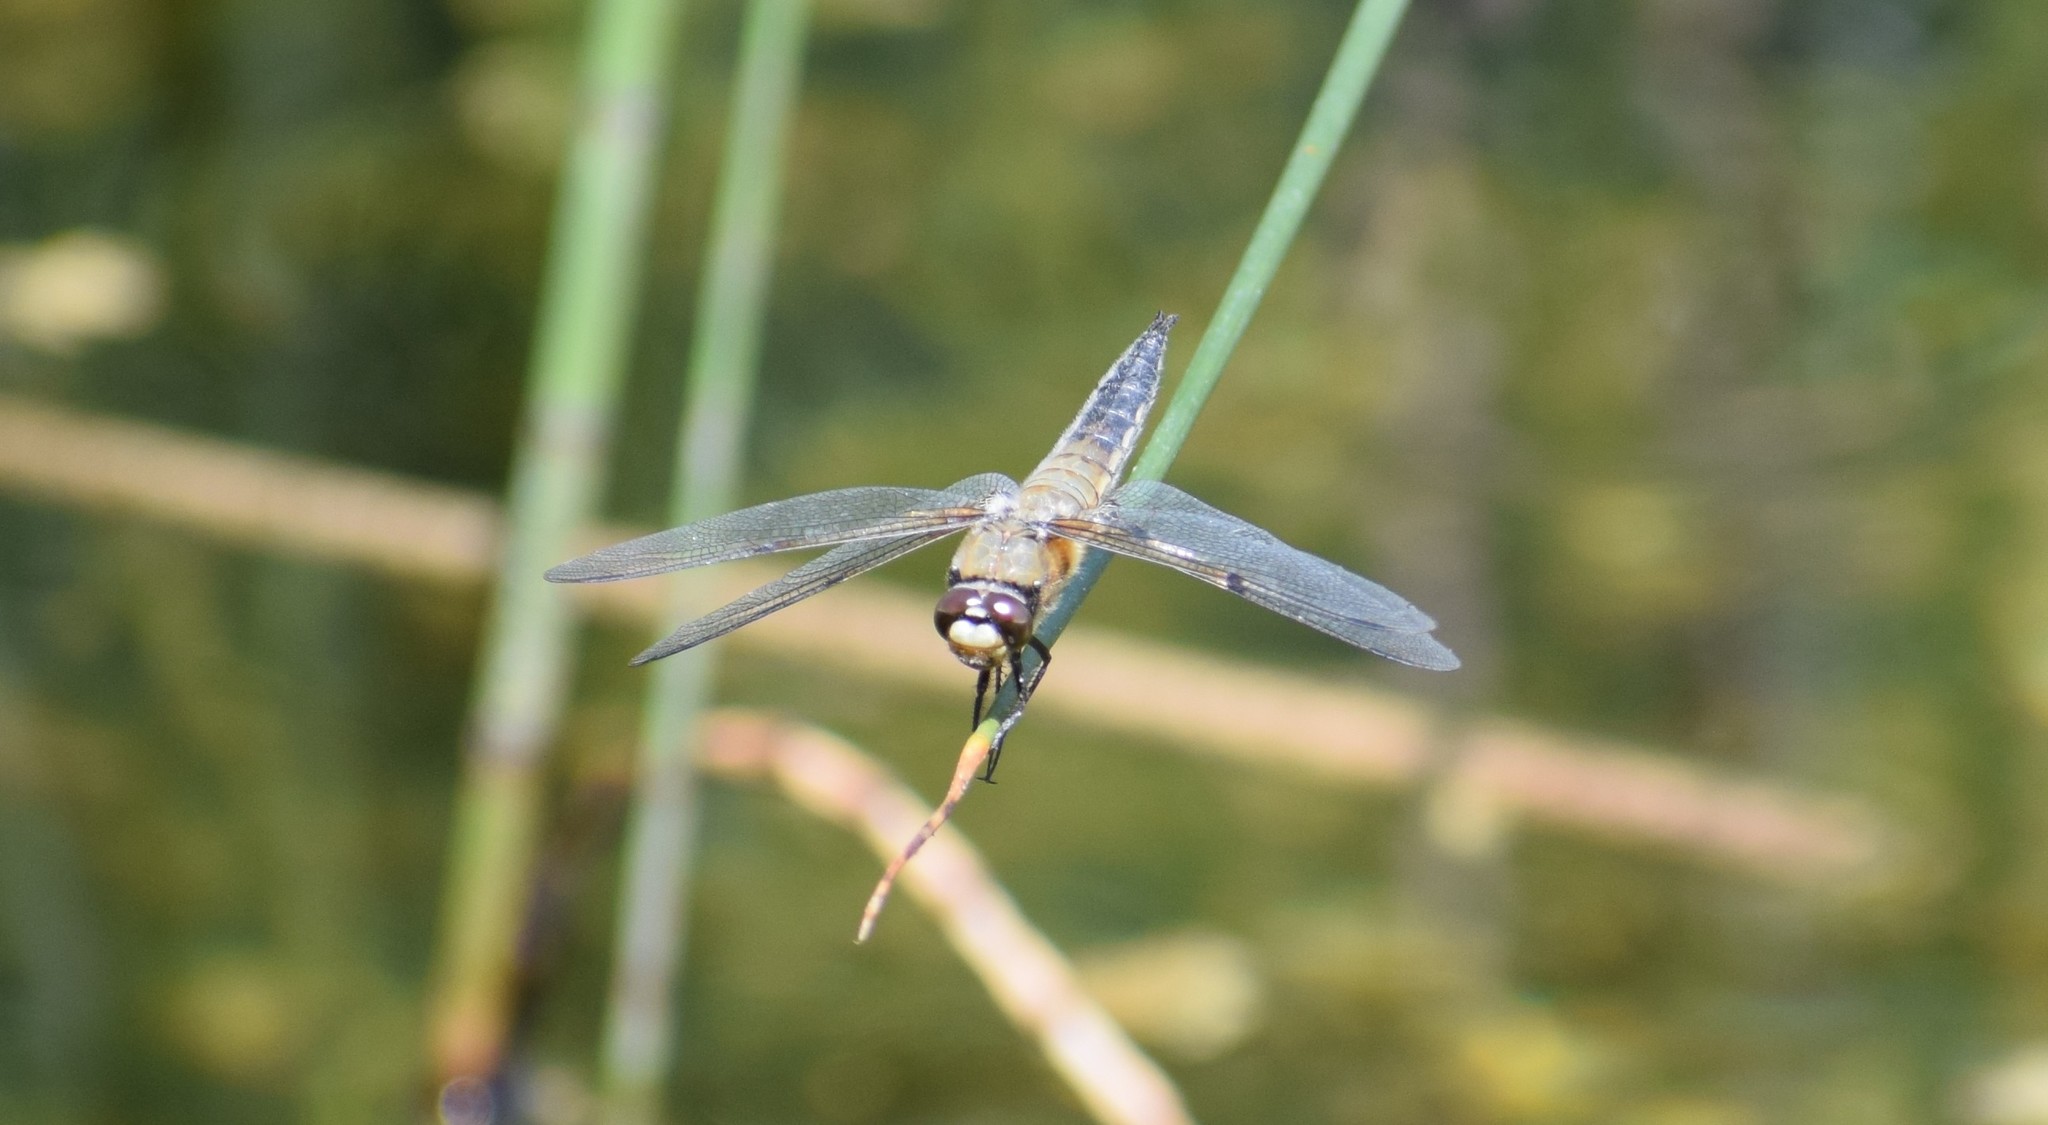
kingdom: Animalia
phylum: Arthropoda
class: Insecta
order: Odonata
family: Libellulidae
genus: Libellula
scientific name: Libellula quadrimaculata
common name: Four-spotted chaser
